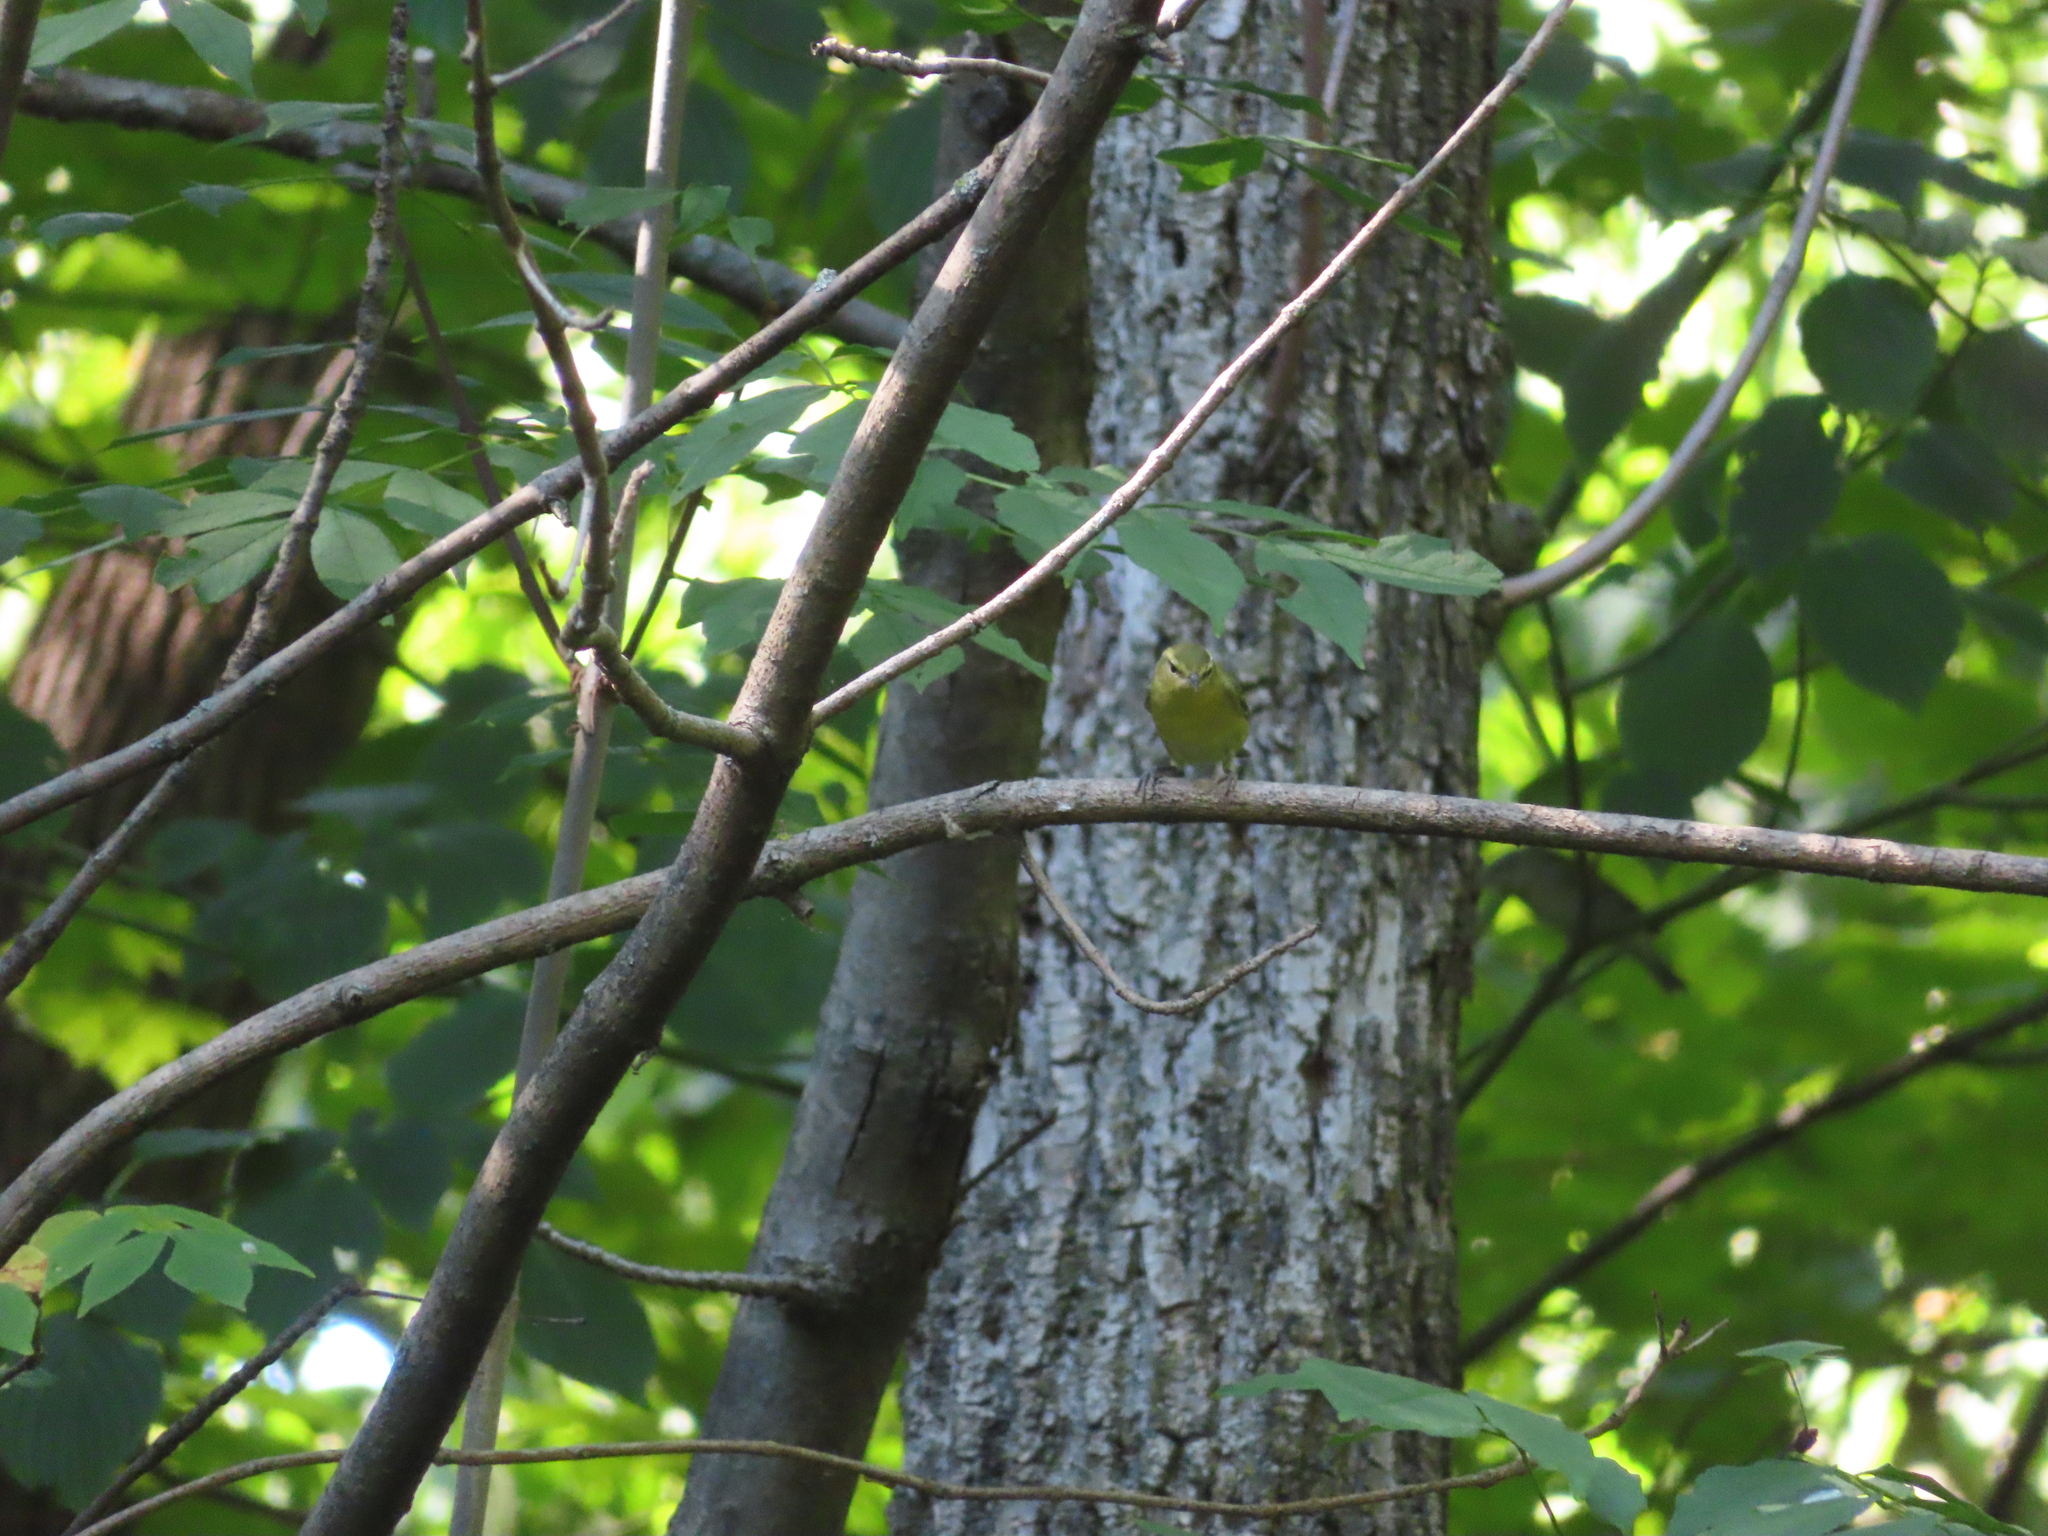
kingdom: Animalia
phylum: Chordata
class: Aves
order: Passeriformes
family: Parulidae
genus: Leiothlypis
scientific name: Leiothlypis peregrina
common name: Tennessee warbler
